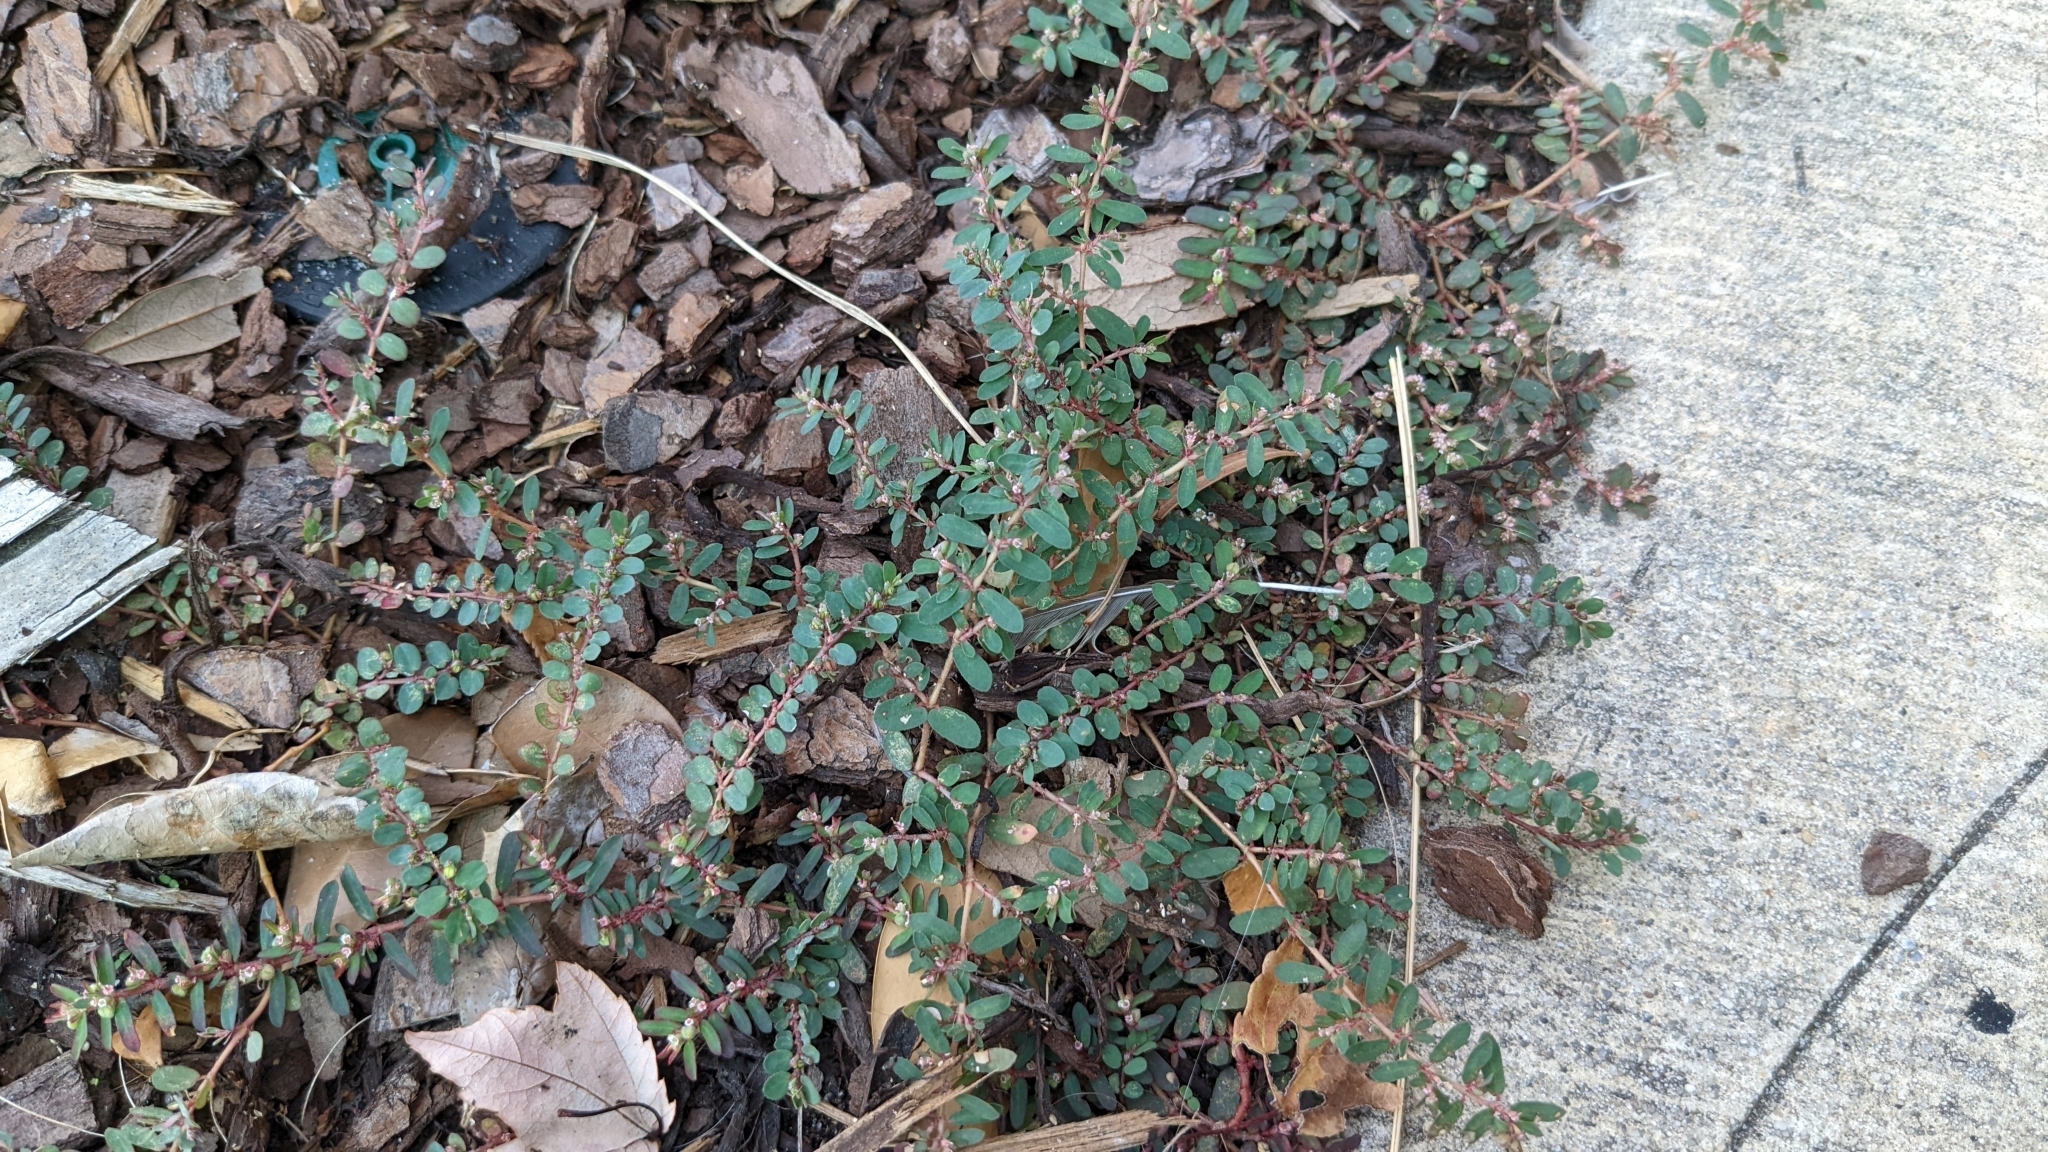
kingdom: Plantae
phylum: Tracheophyta
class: Magnoliopsida
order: Malpighiales
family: Euphorbiaceae
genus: Euphorbia
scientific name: Euphorbia maculata
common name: Spotted spurge
